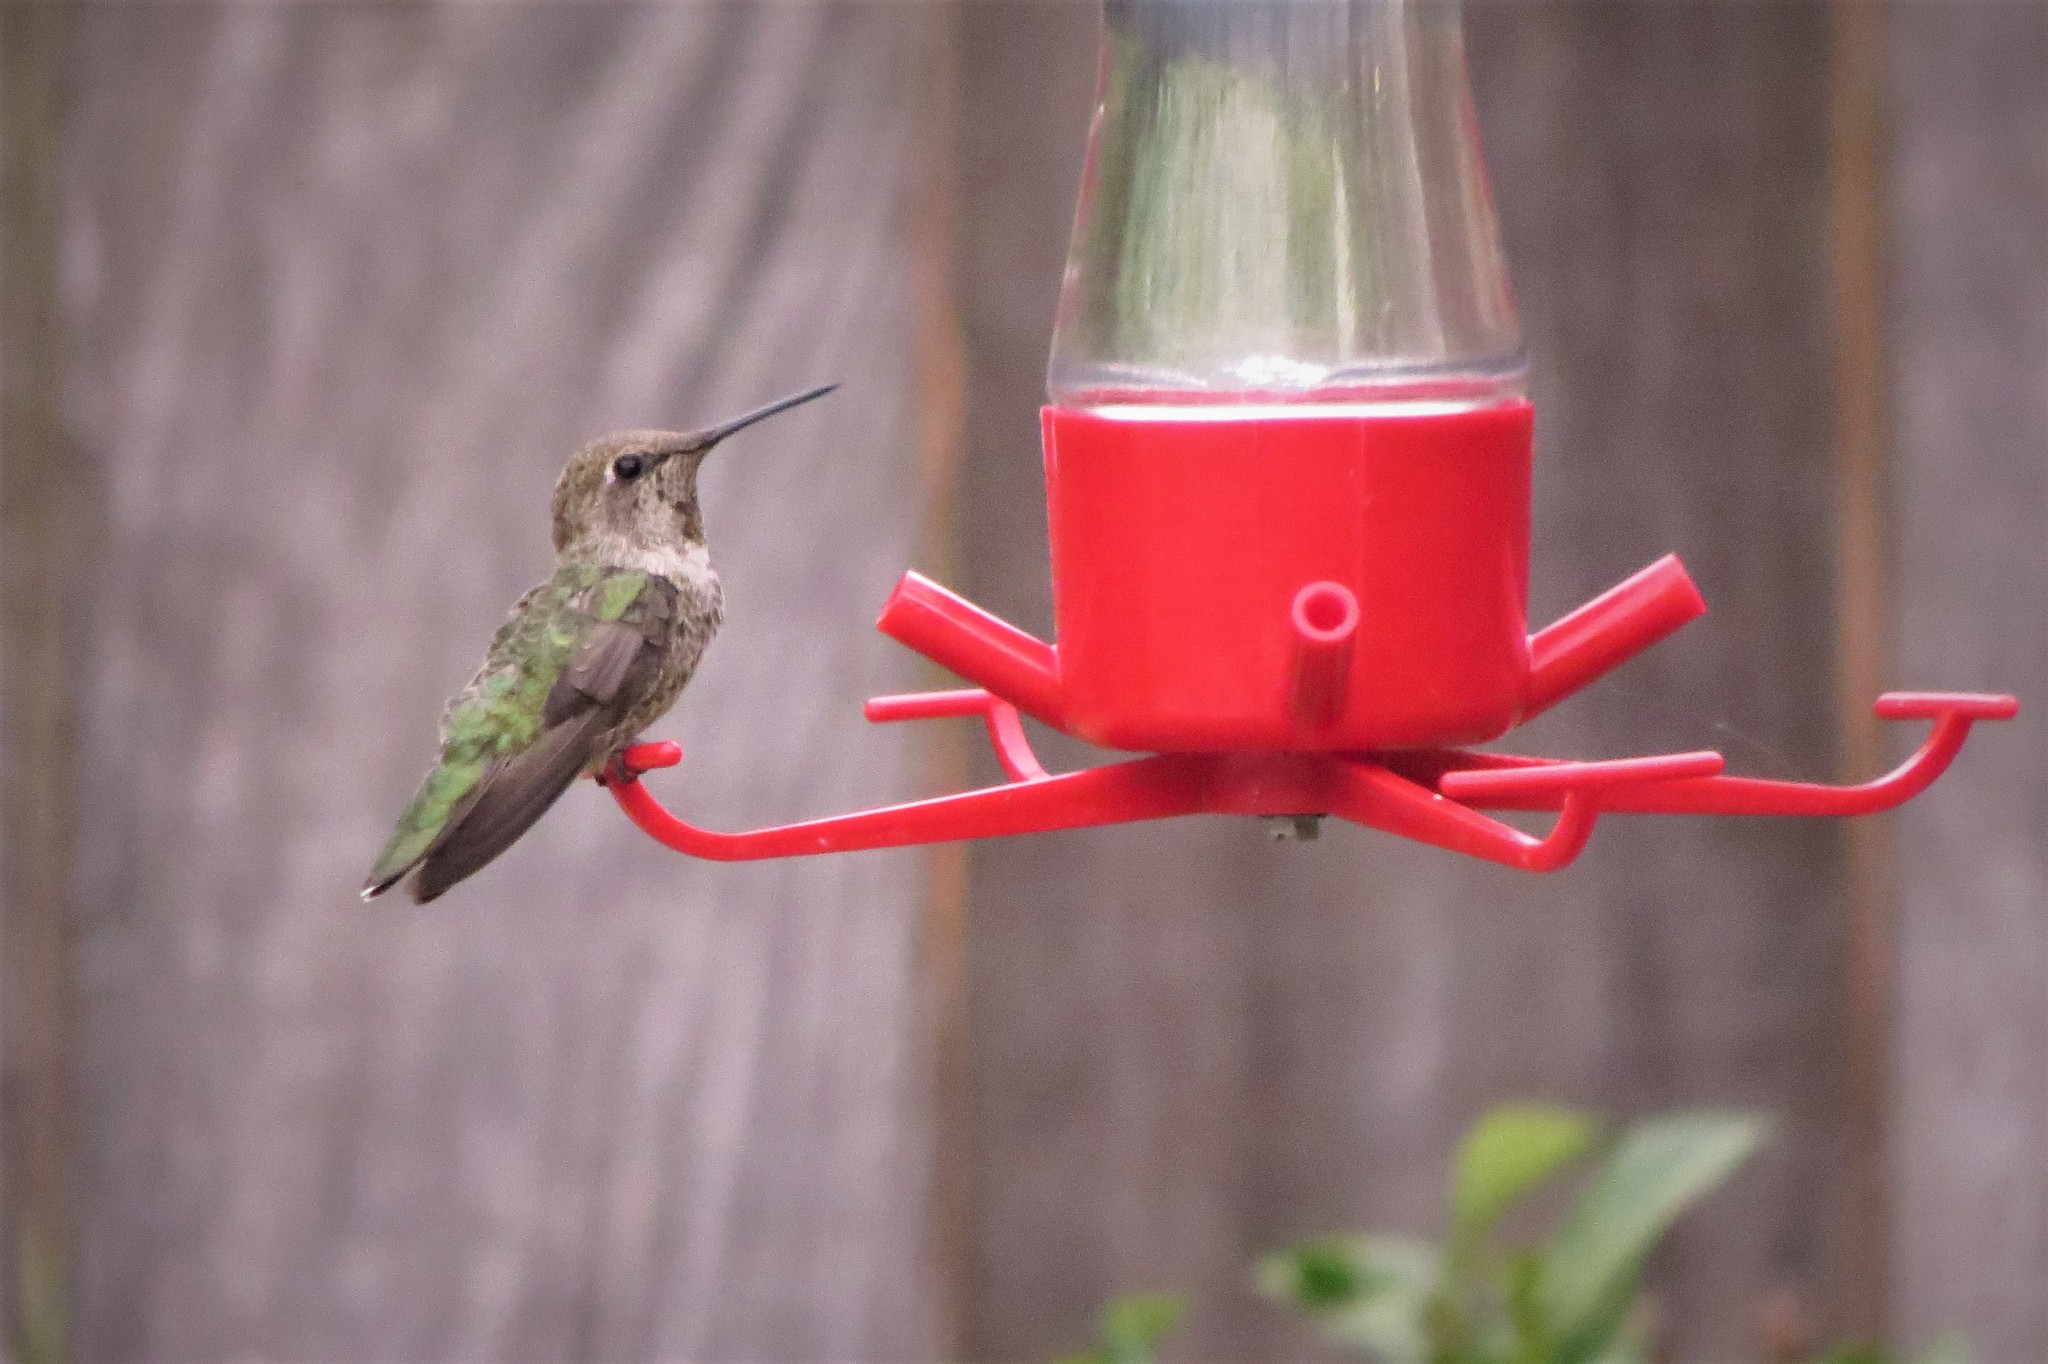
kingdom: Animalia
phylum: Chordata
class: Aves
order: Apodiformes
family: Trochilidae
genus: Calypte
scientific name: Calypte anna
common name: Anna's hummingbird
